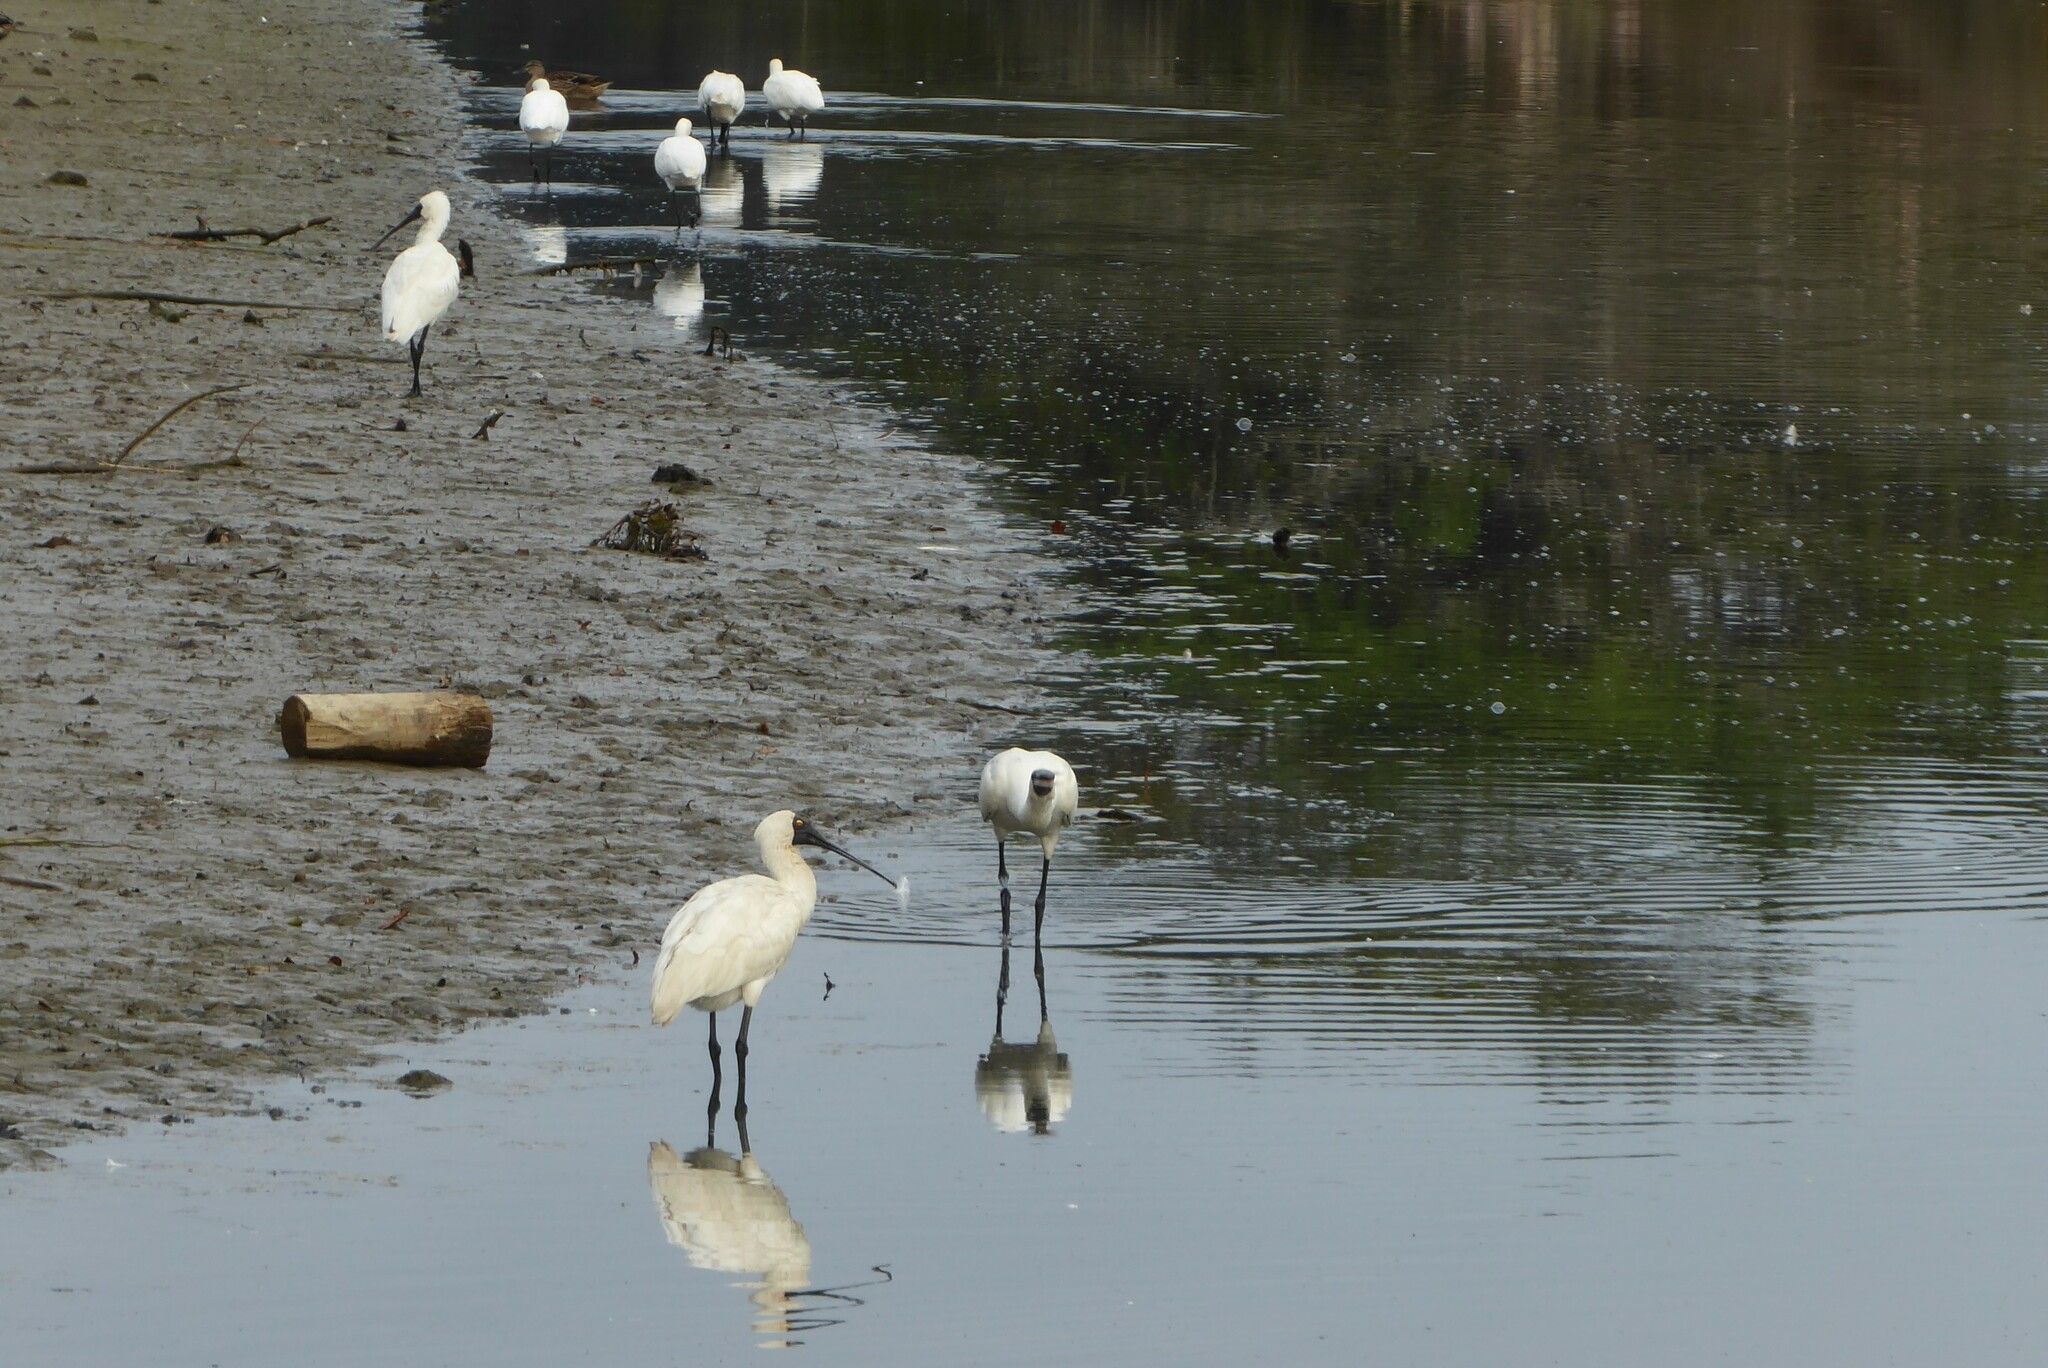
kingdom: Animalia
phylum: Chordata
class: Aves
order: Pelecaniformes
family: Threskiornithidae
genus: Platalea
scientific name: Platalea regia
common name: Royal spoonbill
